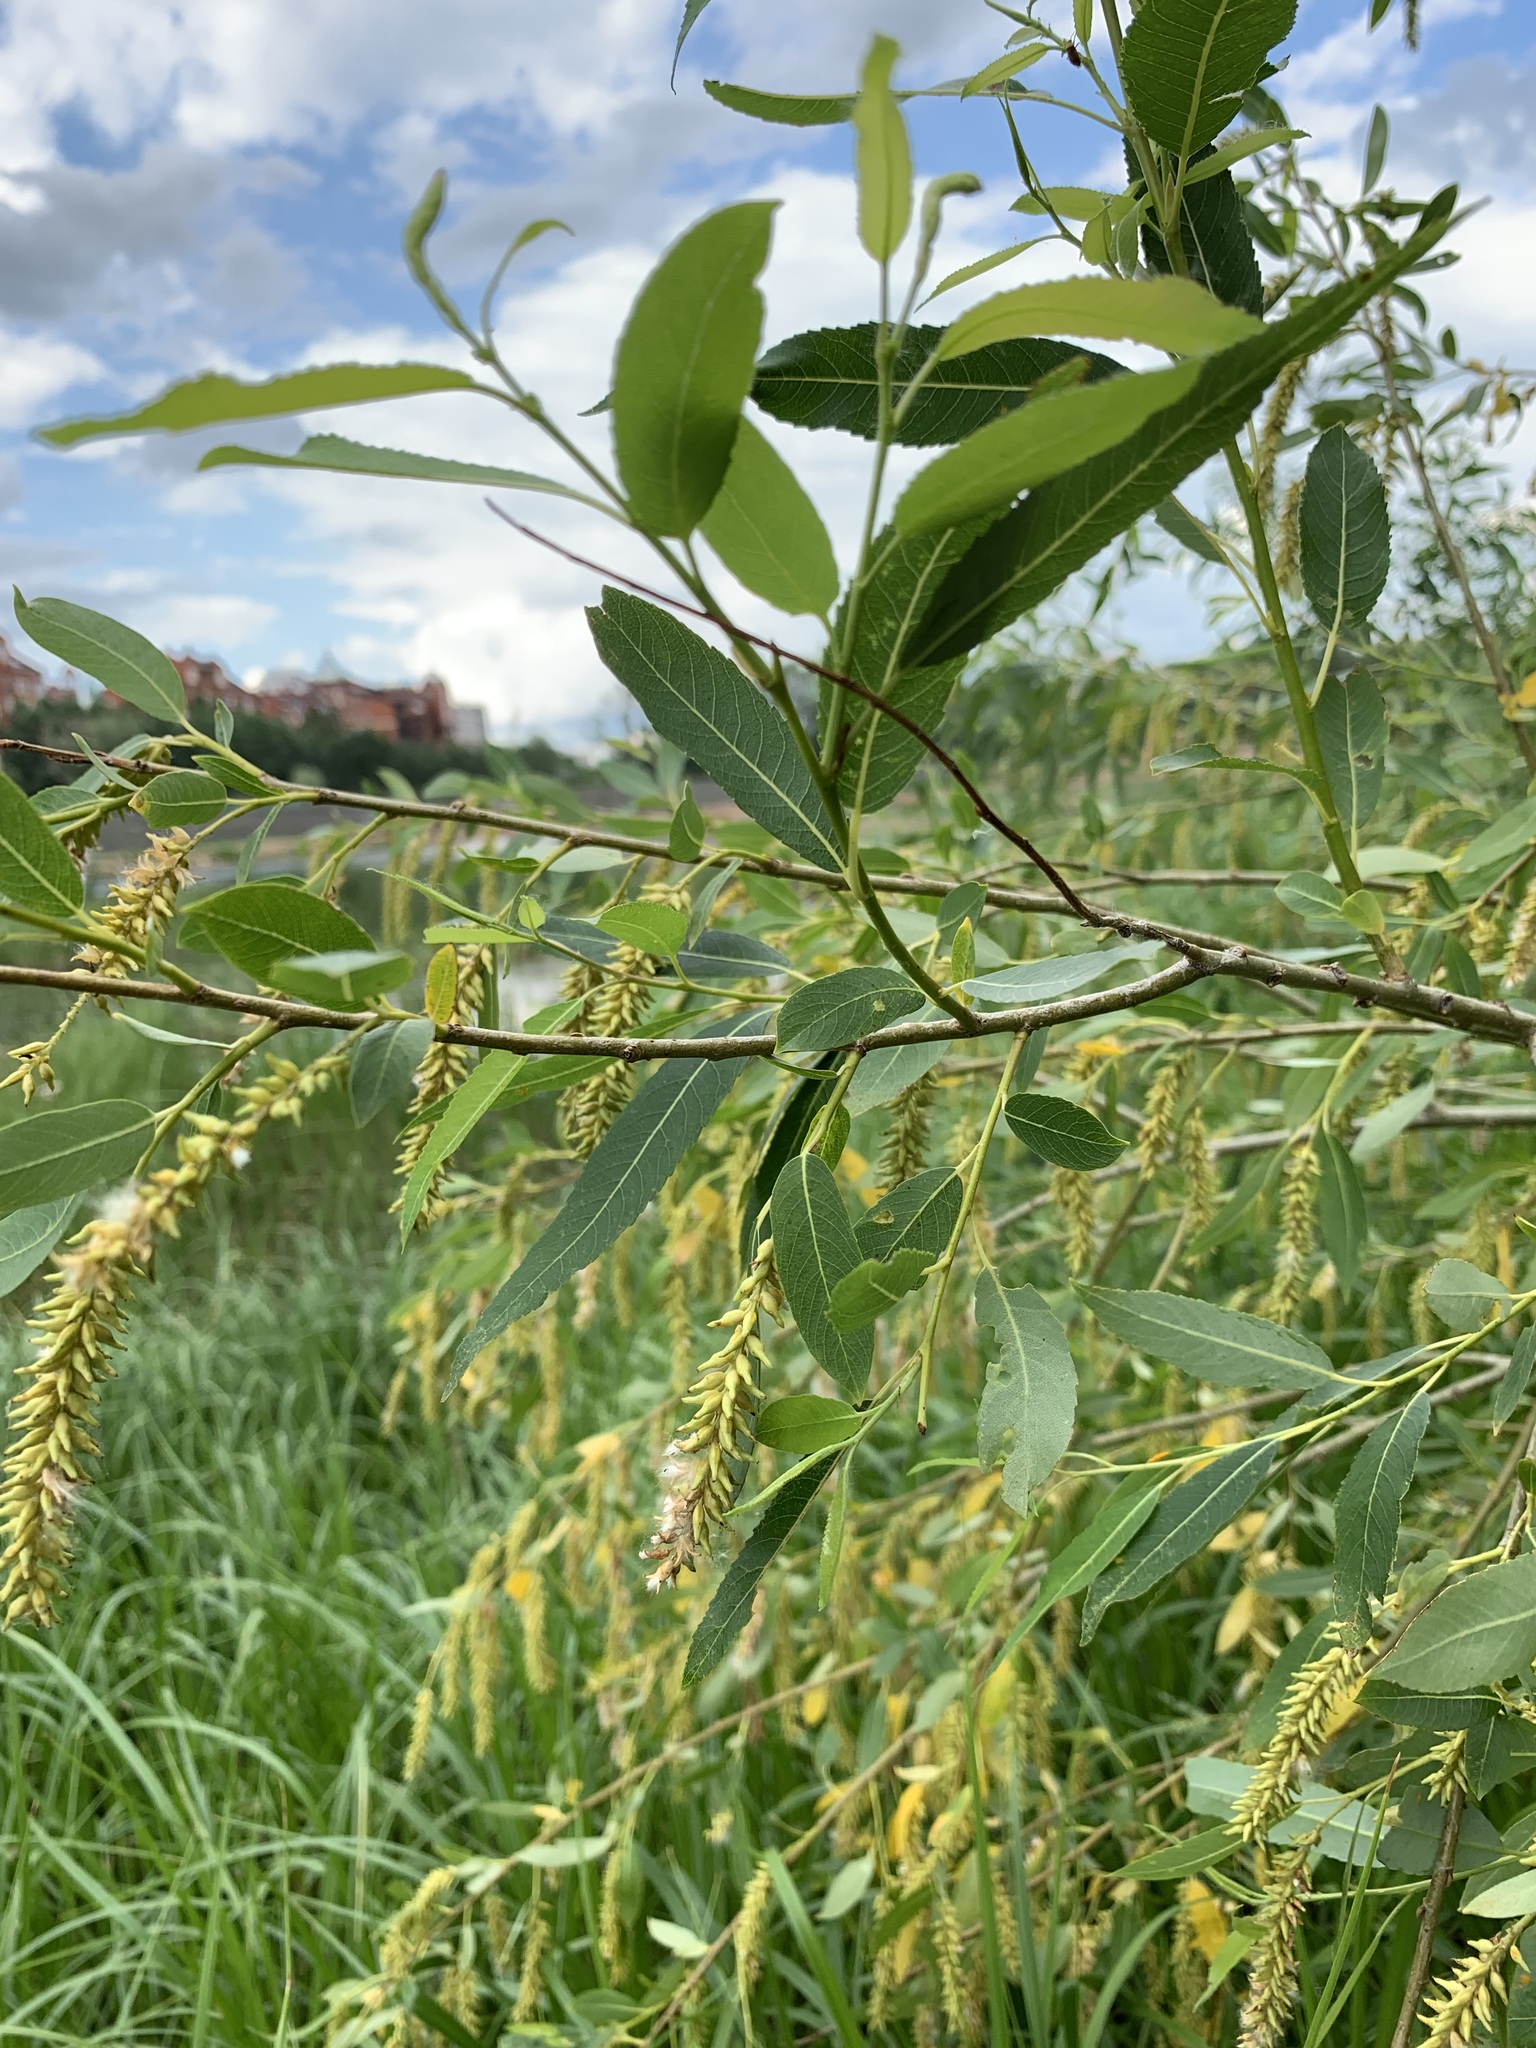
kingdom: Plantae
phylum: Tracheophyta
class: Magnoliopsida
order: Malpighiales
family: Salicaceae
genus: Salix
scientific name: Salix triandra
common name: Almond willow
